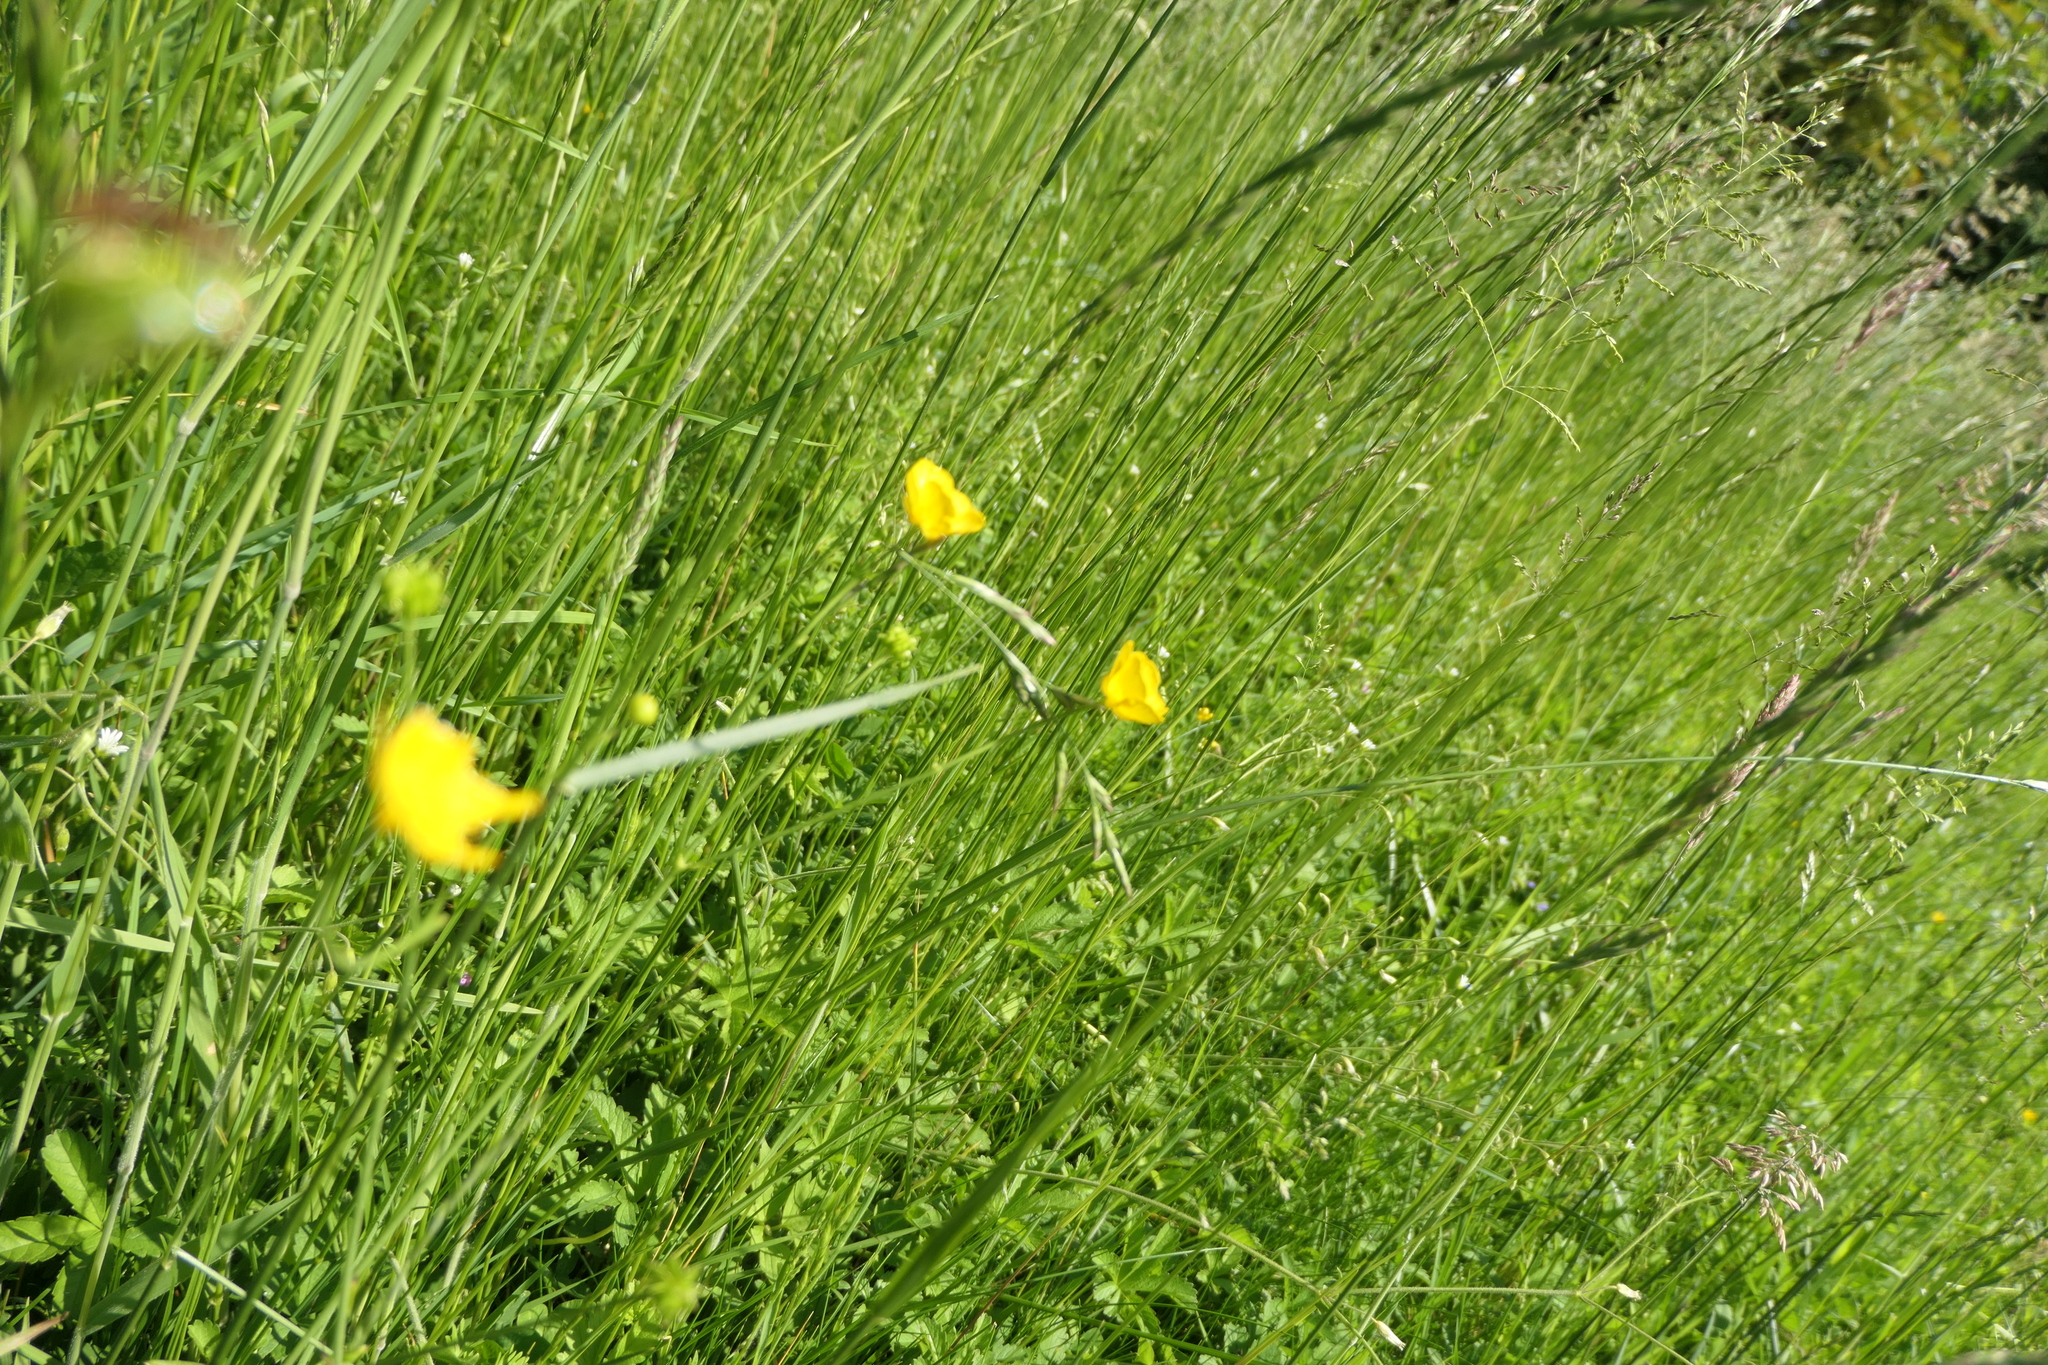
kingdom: Plantae
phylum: Tracheophyta
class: Magnoliopsida
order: Ranunculales
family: Ranunculaceae
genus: Ranunculus
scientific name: Ranunculus acris
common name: Meadow buttercup
